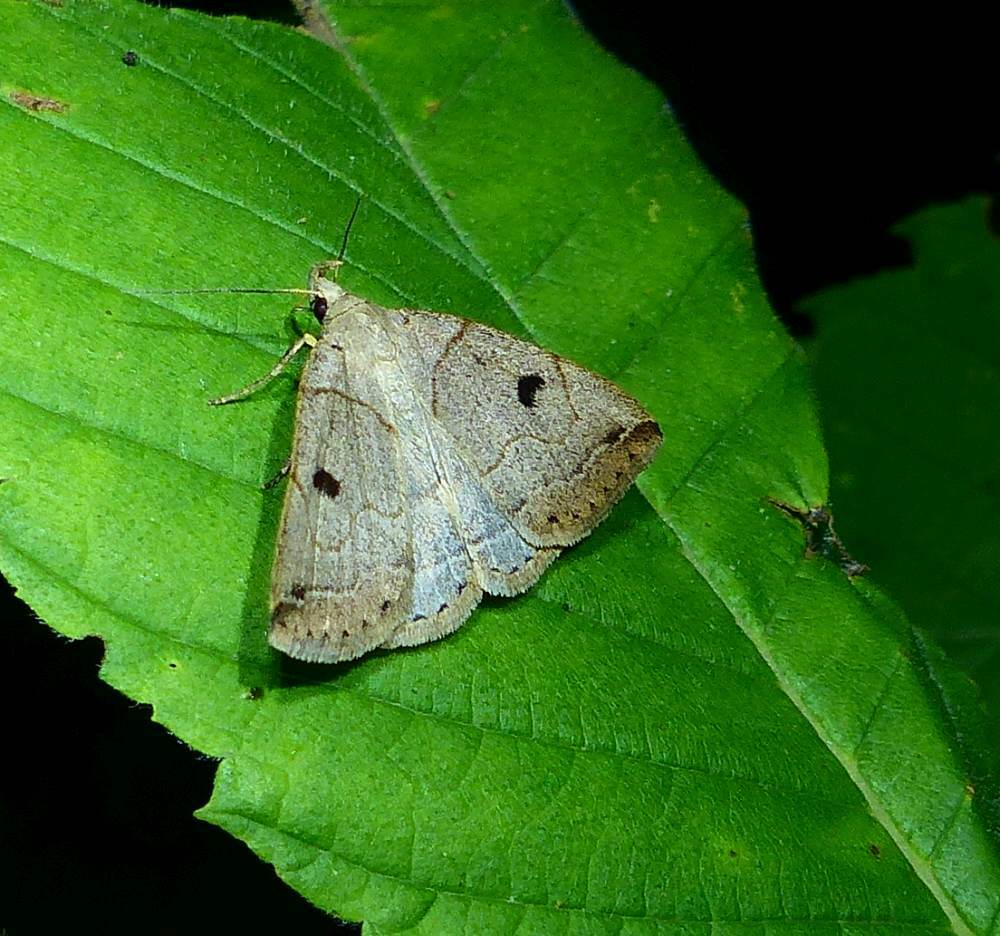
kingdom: Animalia
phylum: Arthropoda
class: Insecta
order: Lepidoptera
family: Erebidae
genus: Zanclognatha
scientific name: Zanclognatha laevigata
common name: Variable fan-foot
